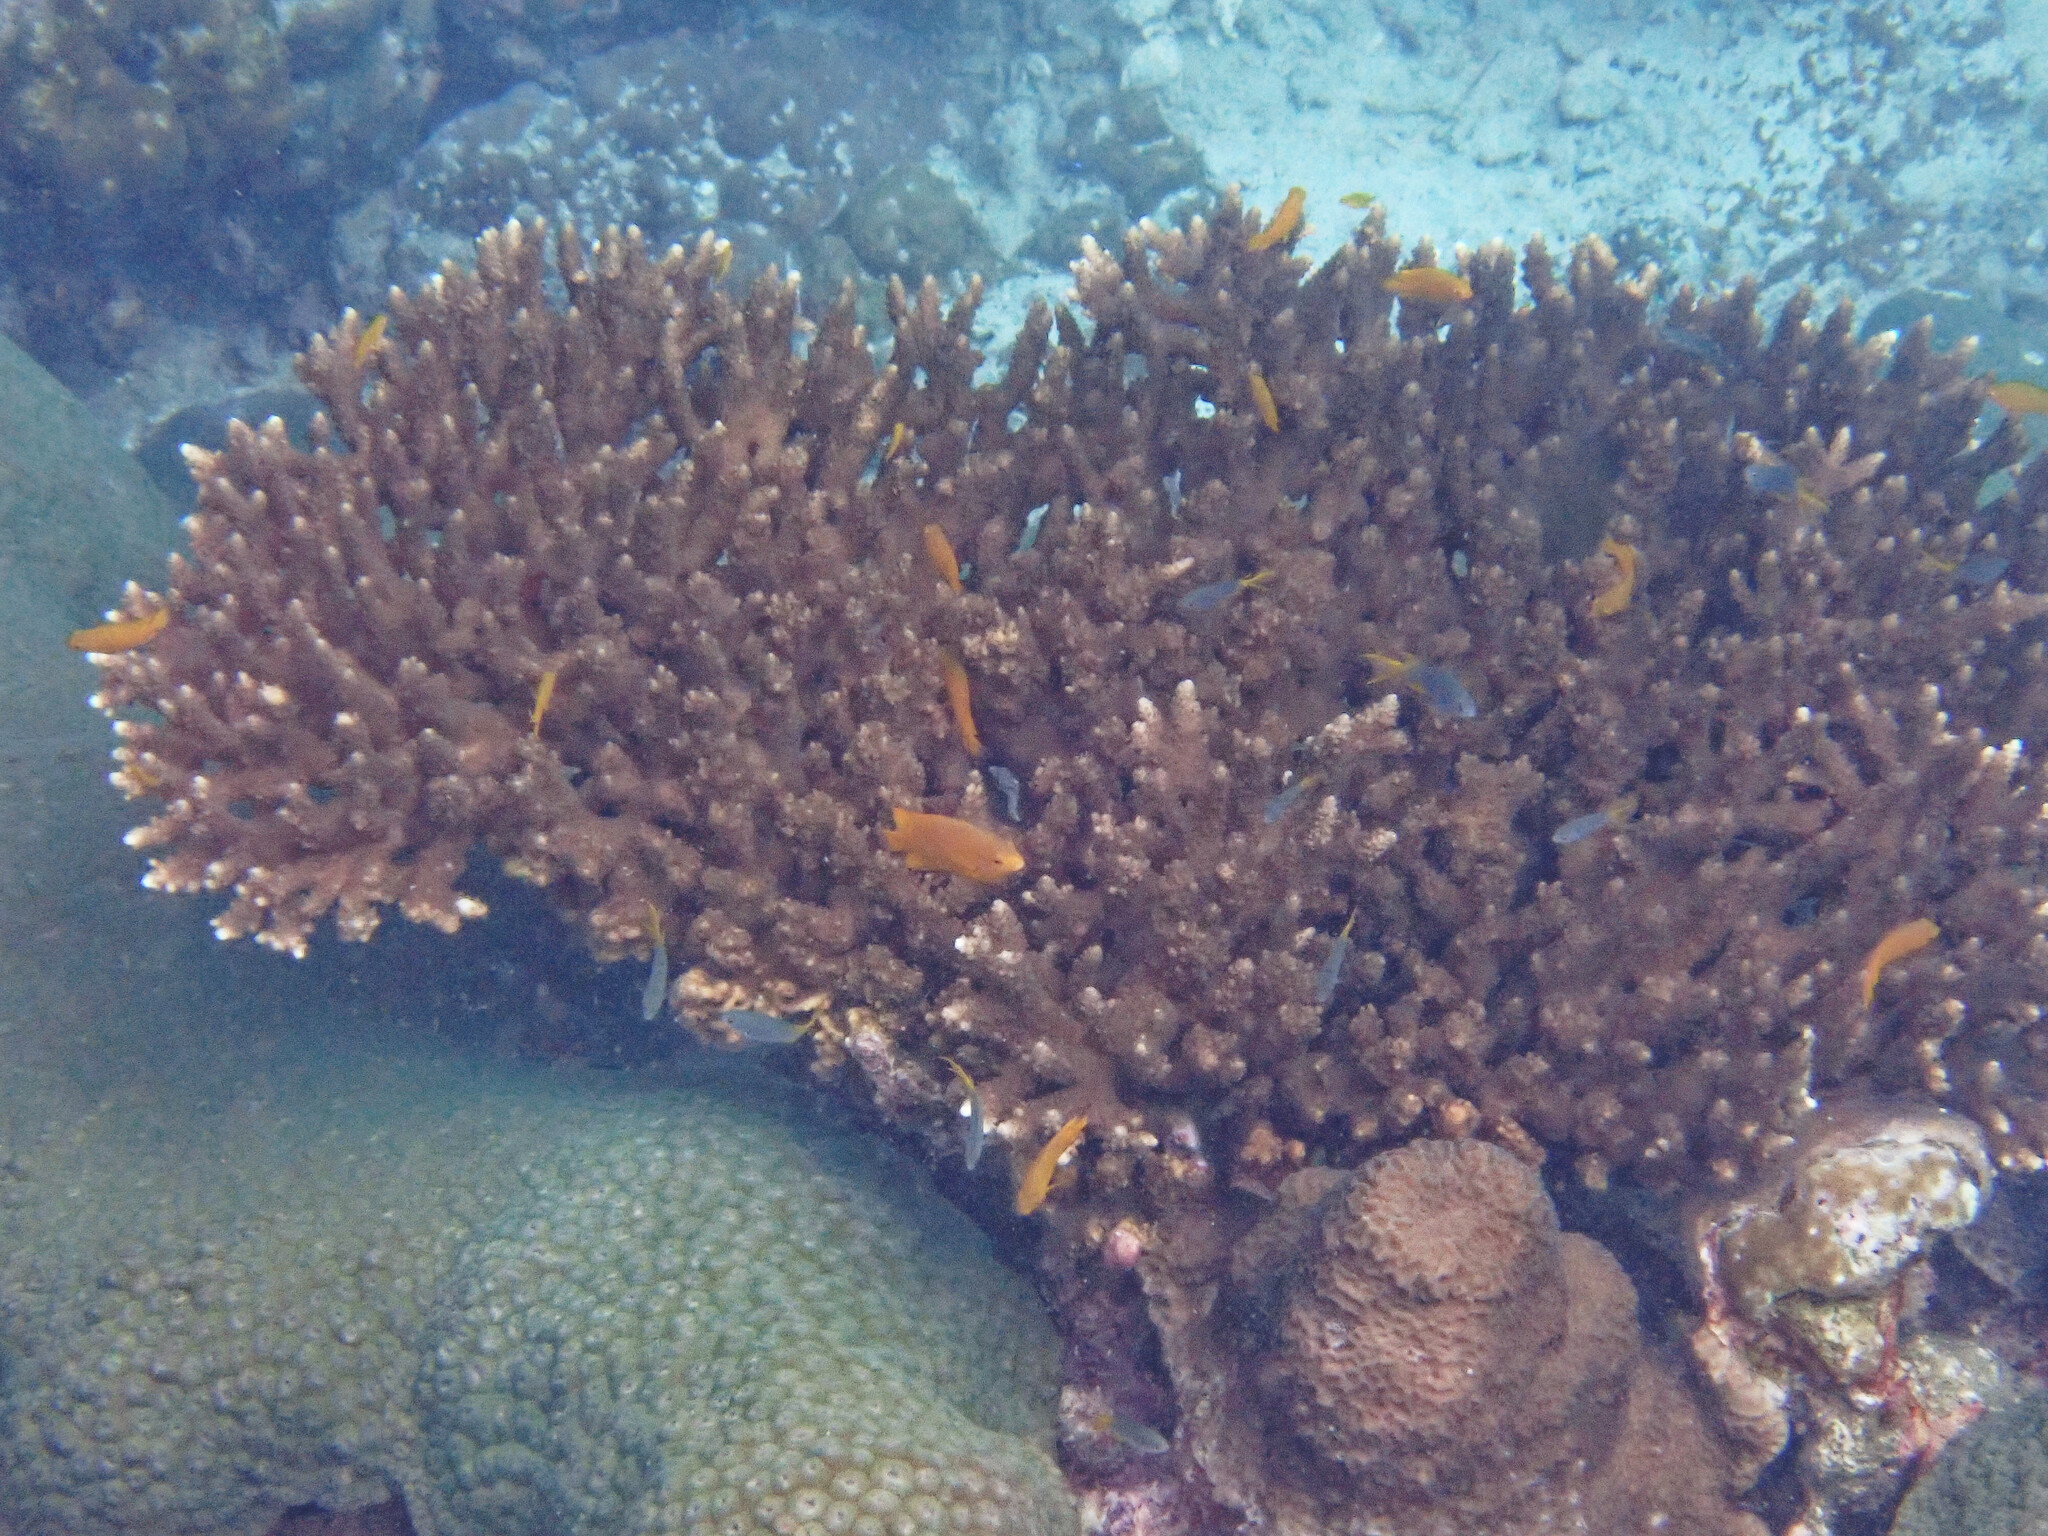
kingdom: Animalia
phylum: Chordata
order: Perciformes
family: Pomacentridae
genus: Pomacentrus
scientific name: Pomacentrus moluccensis
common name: Lemon damsel
